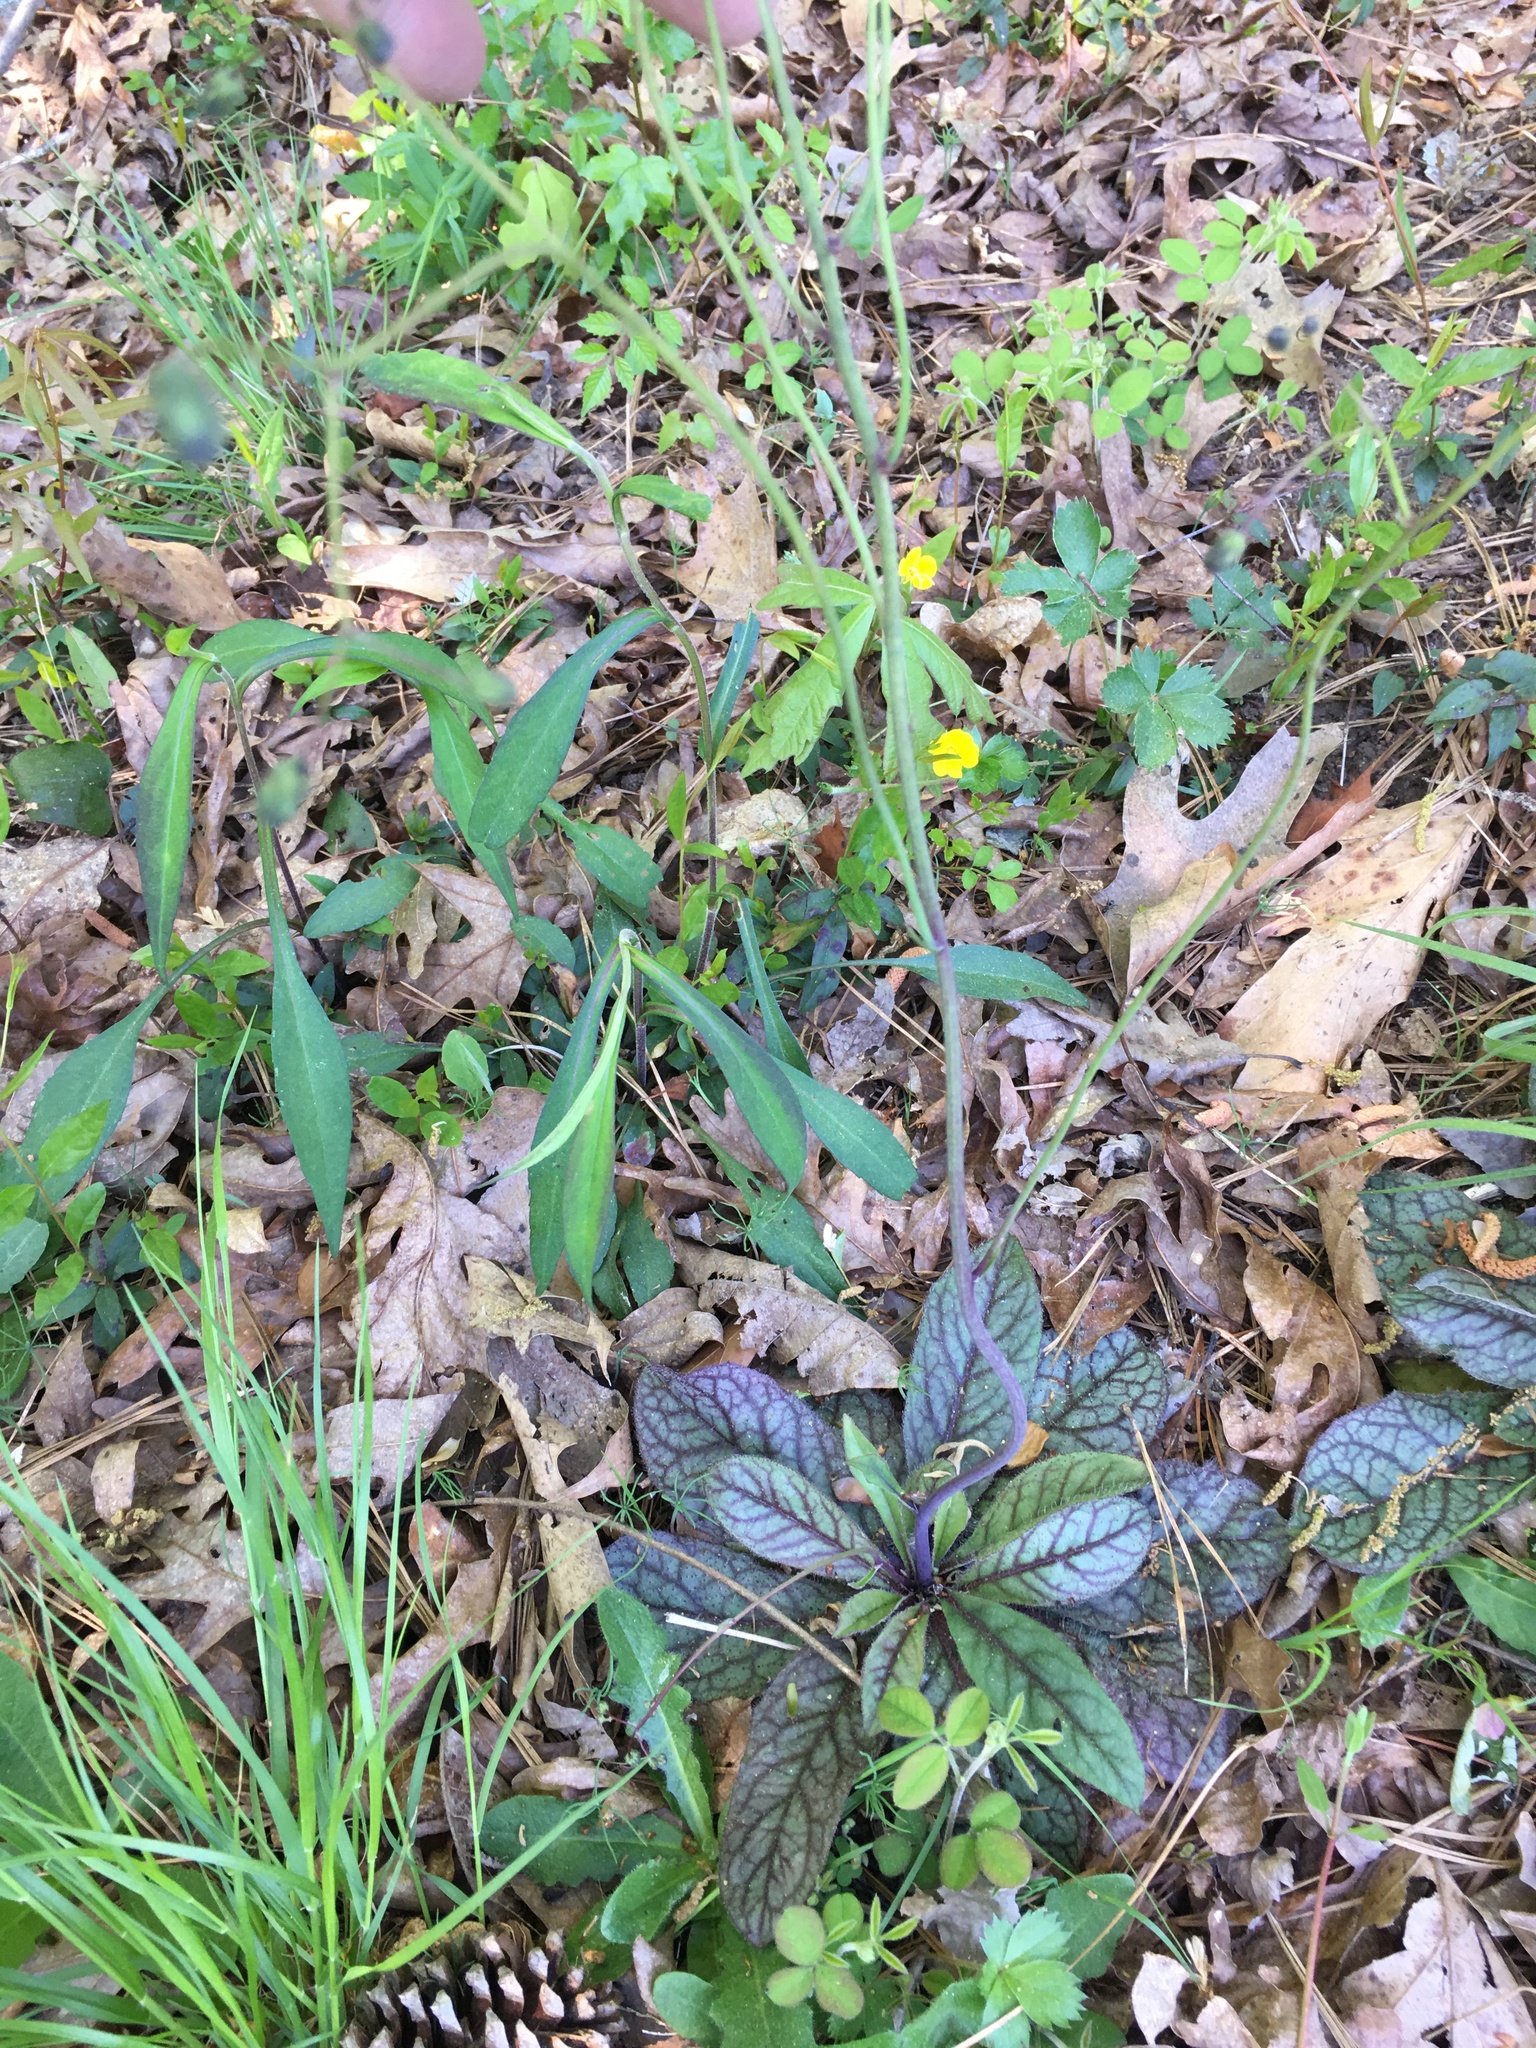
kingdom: Plantae
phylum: Tracheophyta
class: Magnoliopsida
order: Asterales
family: Asteraceae
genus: Hieracium
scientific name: Hieracium venosum
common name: Rattlesnake hawkweed
